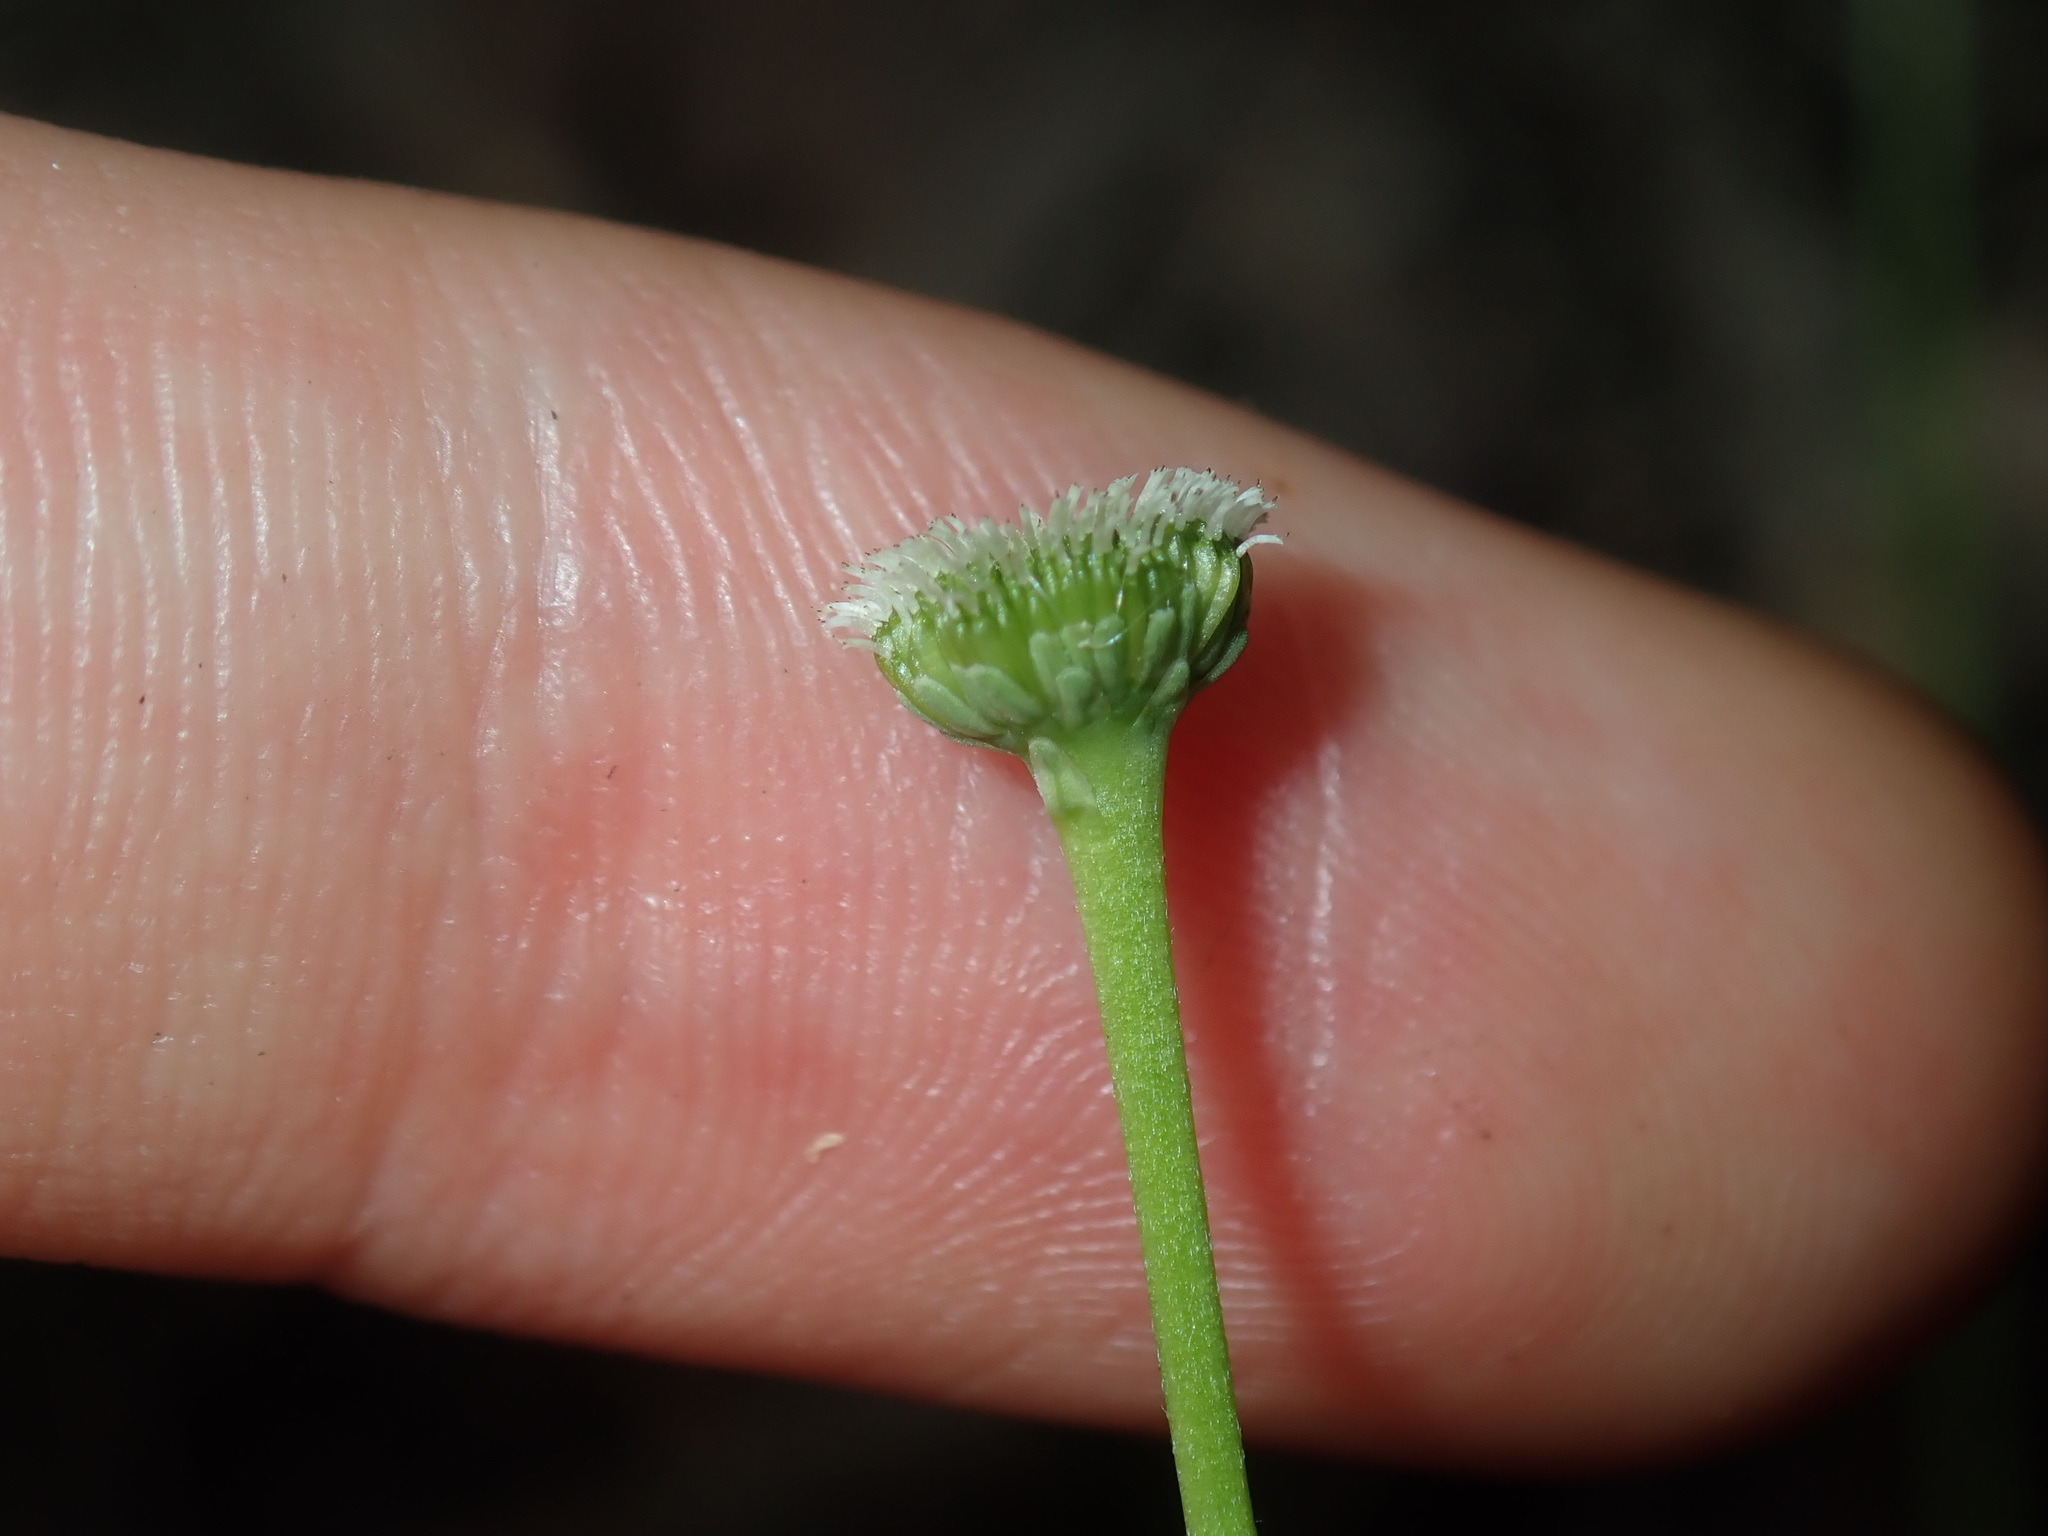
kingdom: Plantae
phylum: Tracheophyta
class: Magnoliopsida
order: Asterales
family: Asteraceae
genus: Solenogyne
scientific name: Solenogyne bellioides
